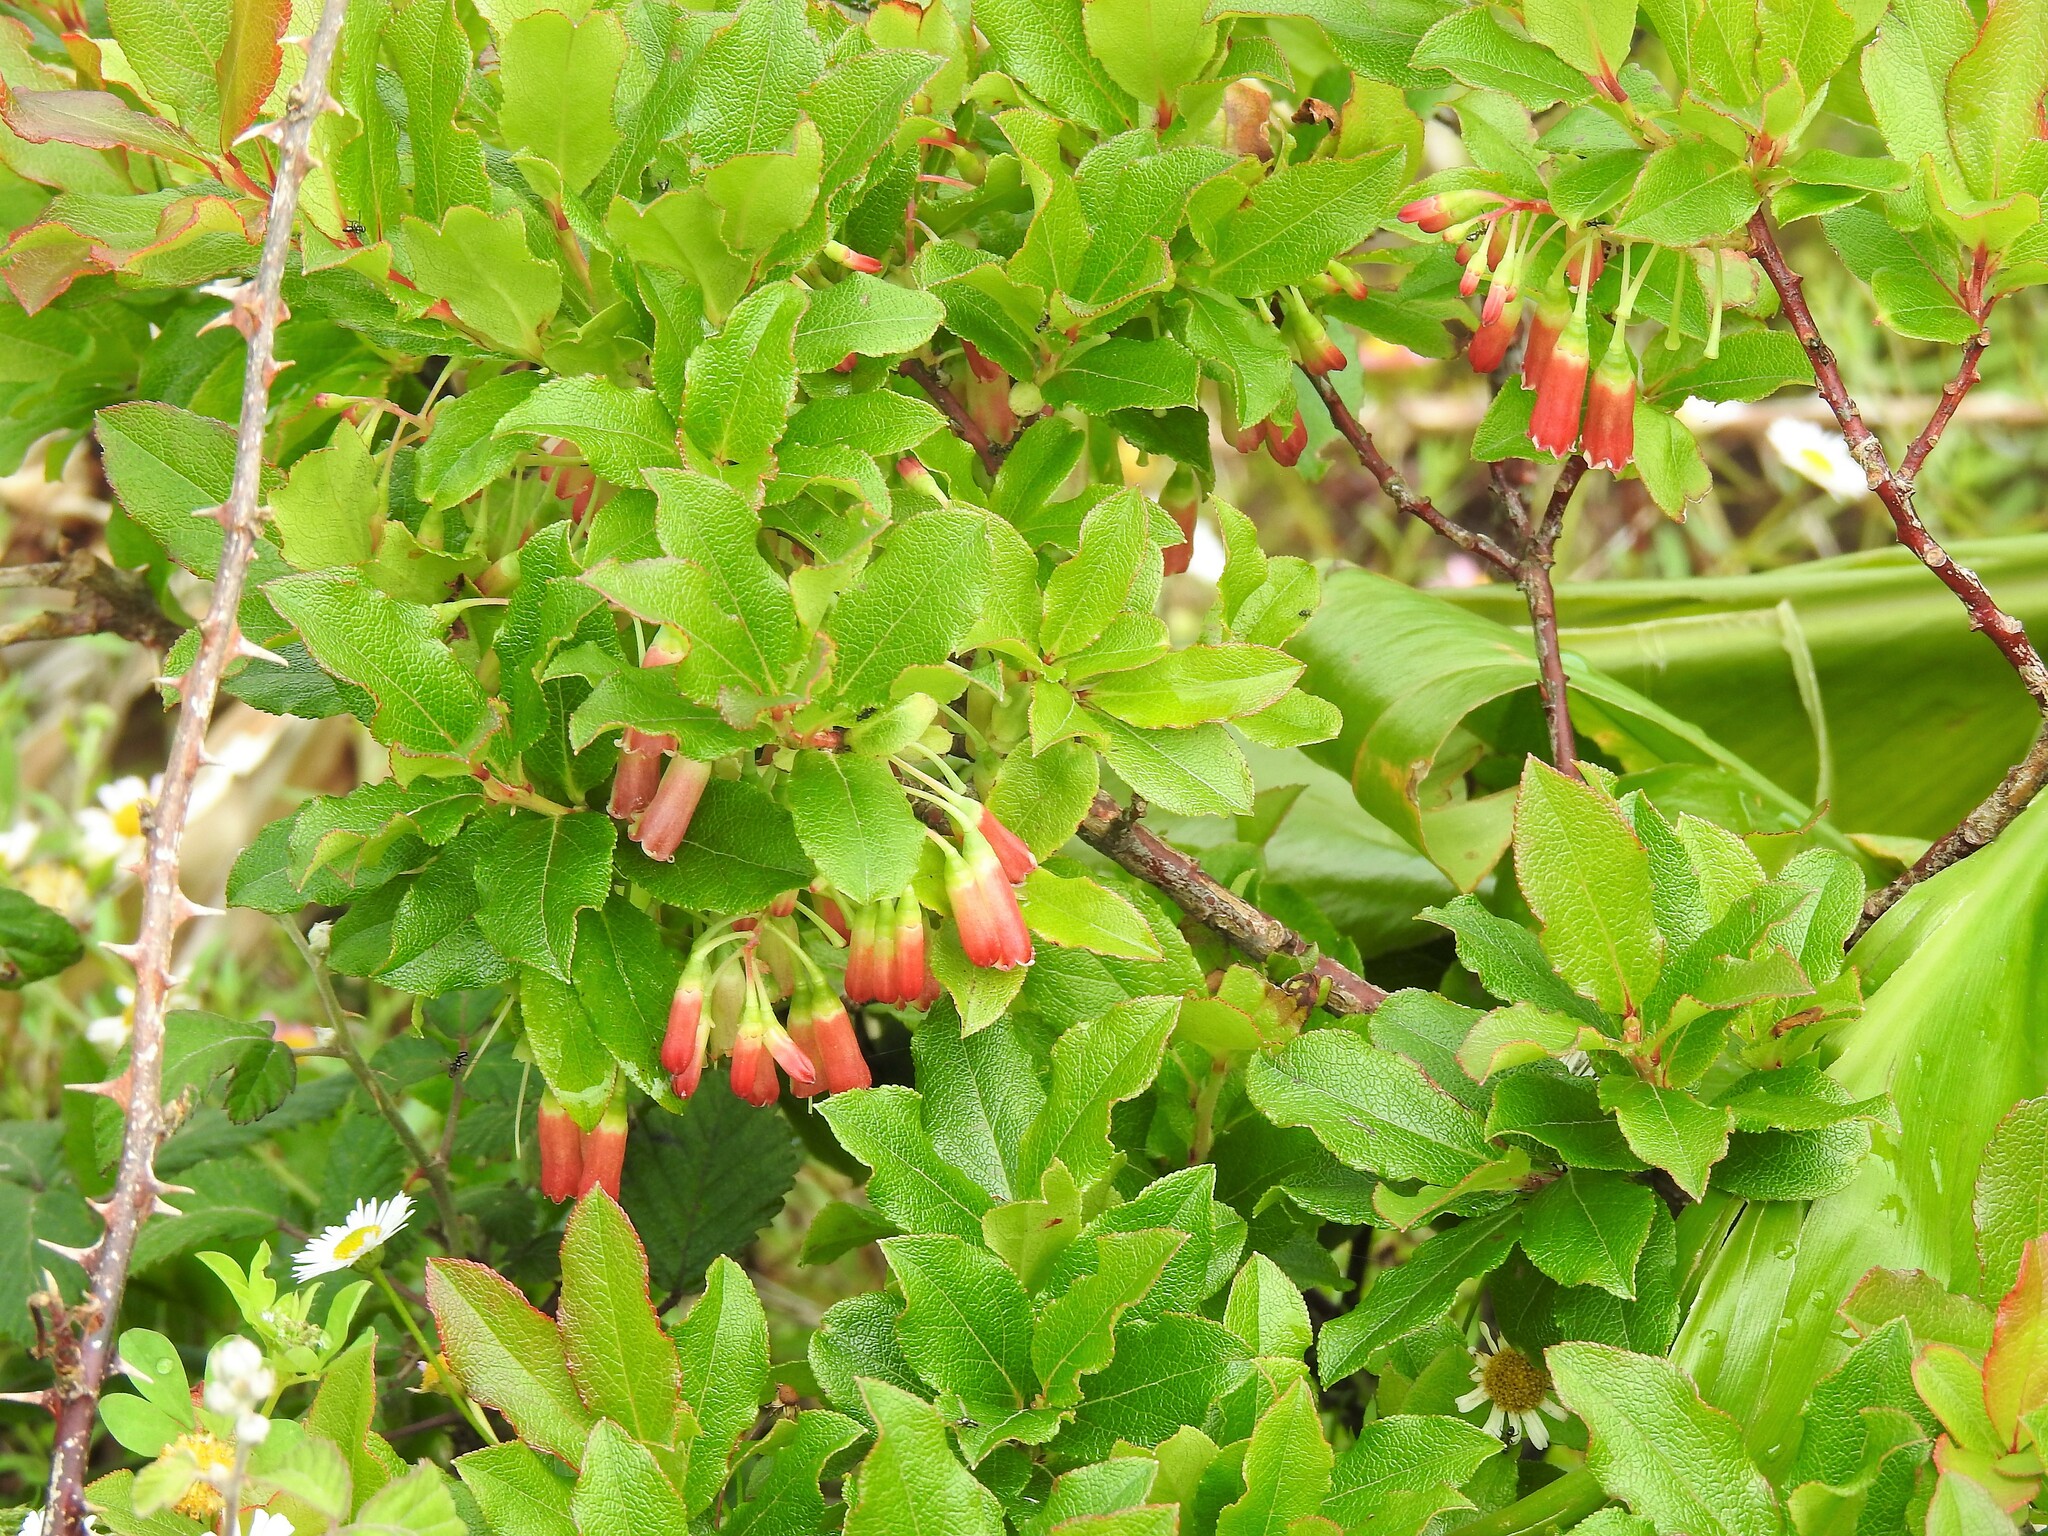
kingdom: Plantae
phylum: Tracheophyta
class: Magnoliopsida
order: Ericales
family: Ericaceae
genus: Vaccinium
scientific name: Vaccinium cylindraceum
